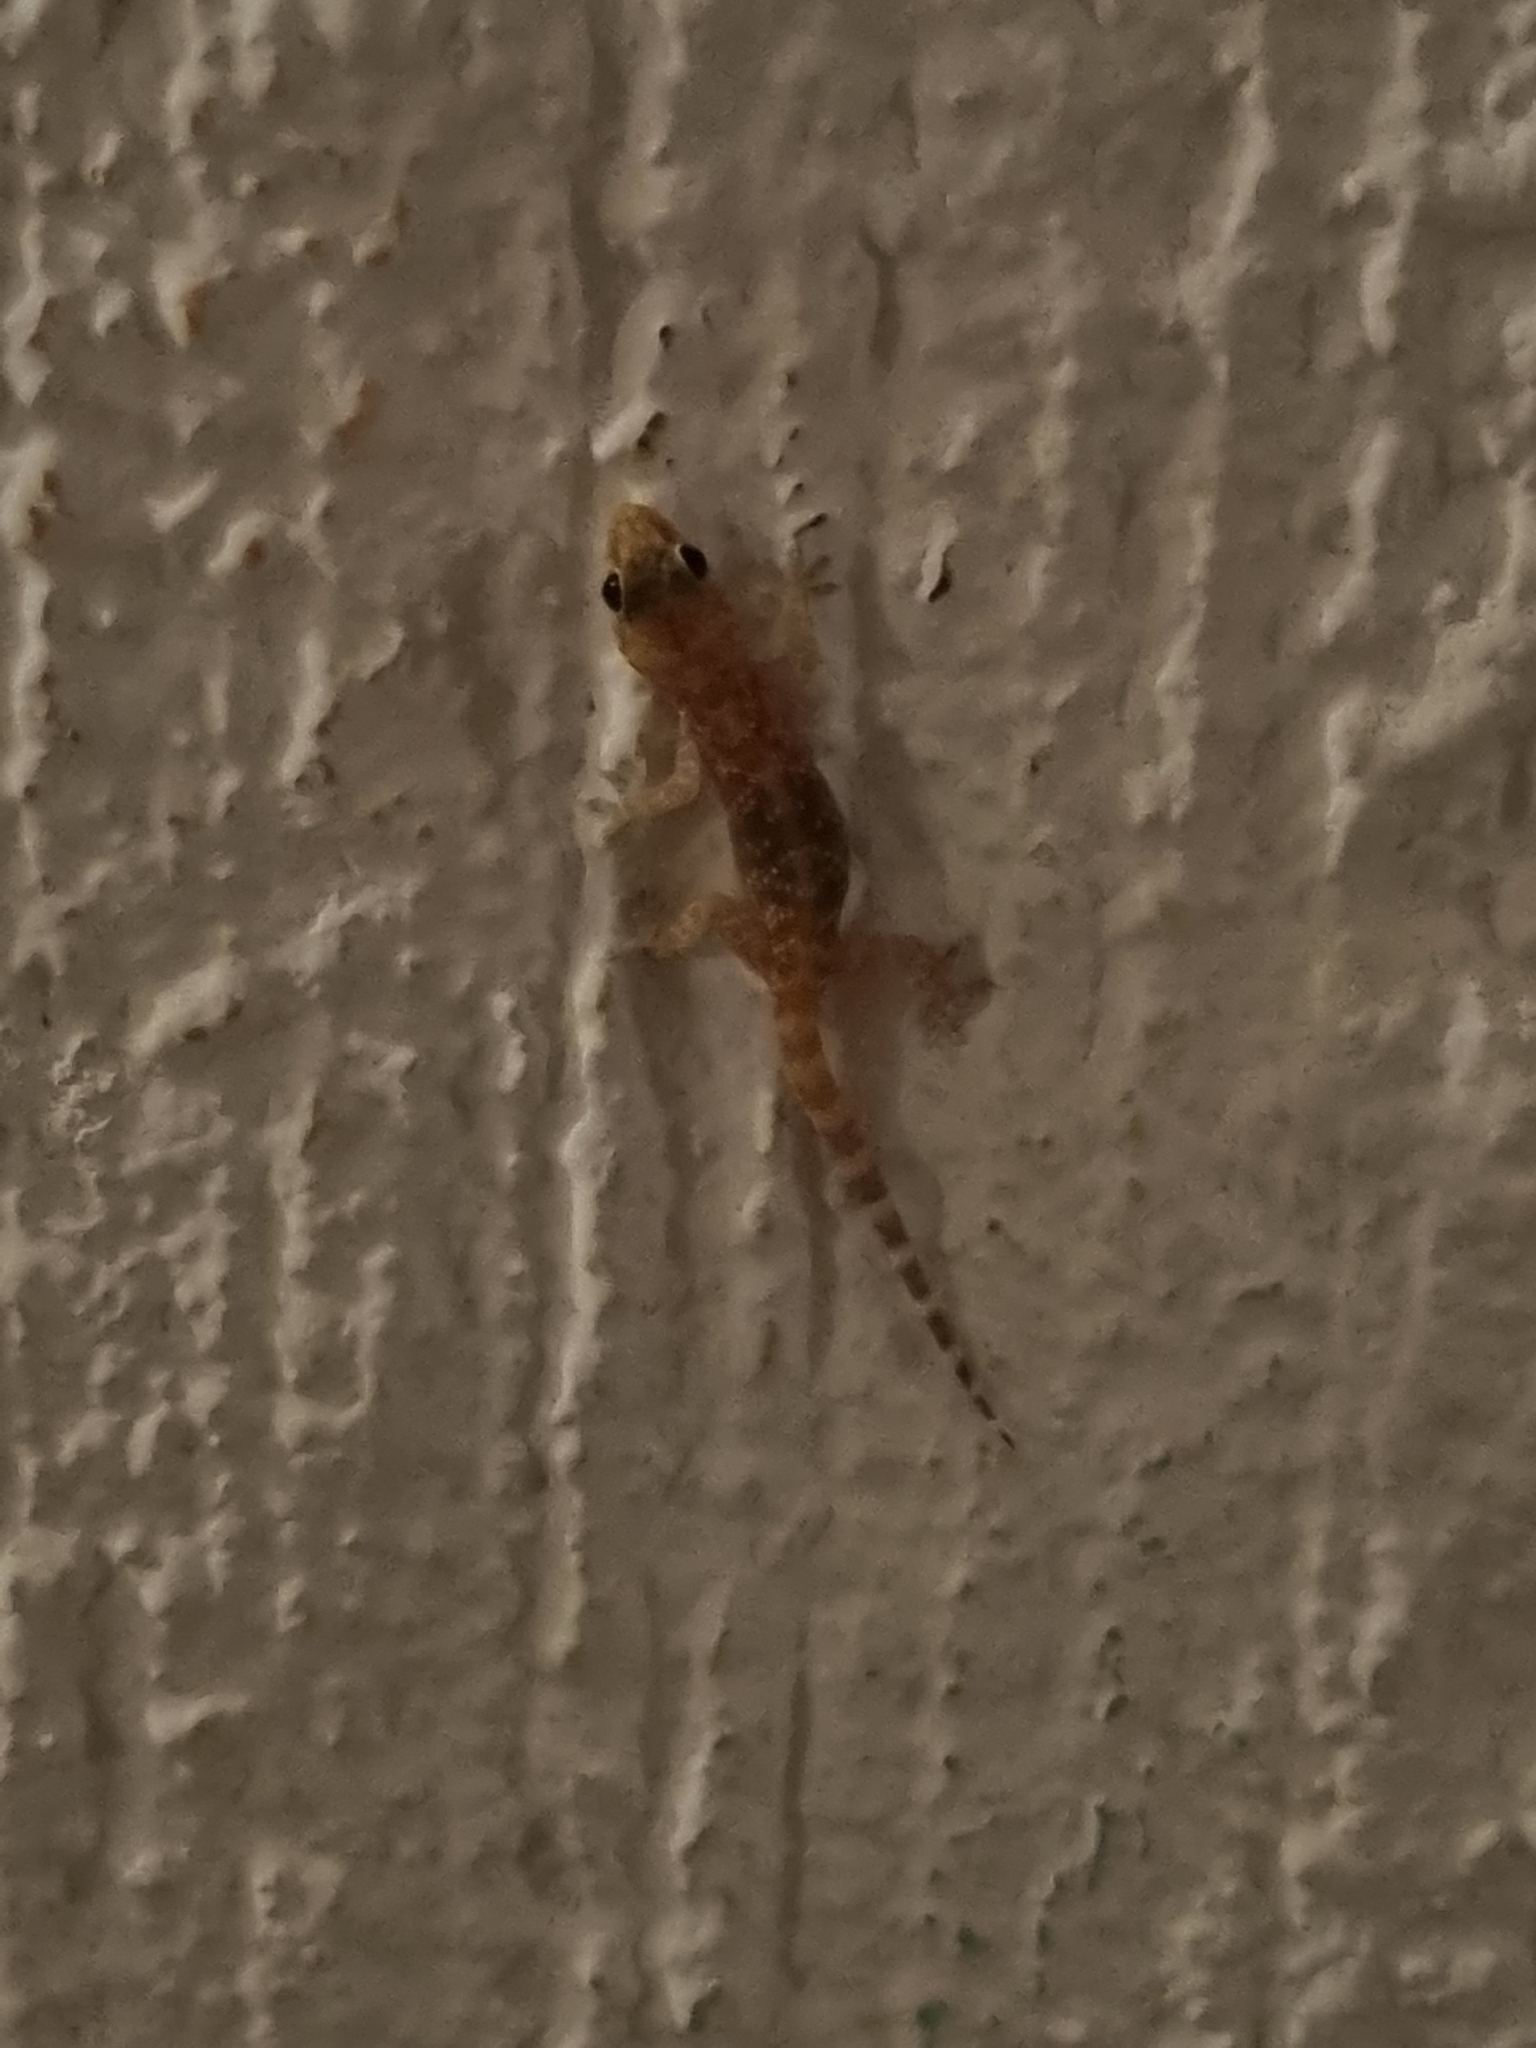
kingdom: Animalia
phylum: Chordata
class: Squamata
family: Gekkonidae
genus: Hemidactylus
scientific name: Hemidactylus turcicus
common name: Turkish gecko
